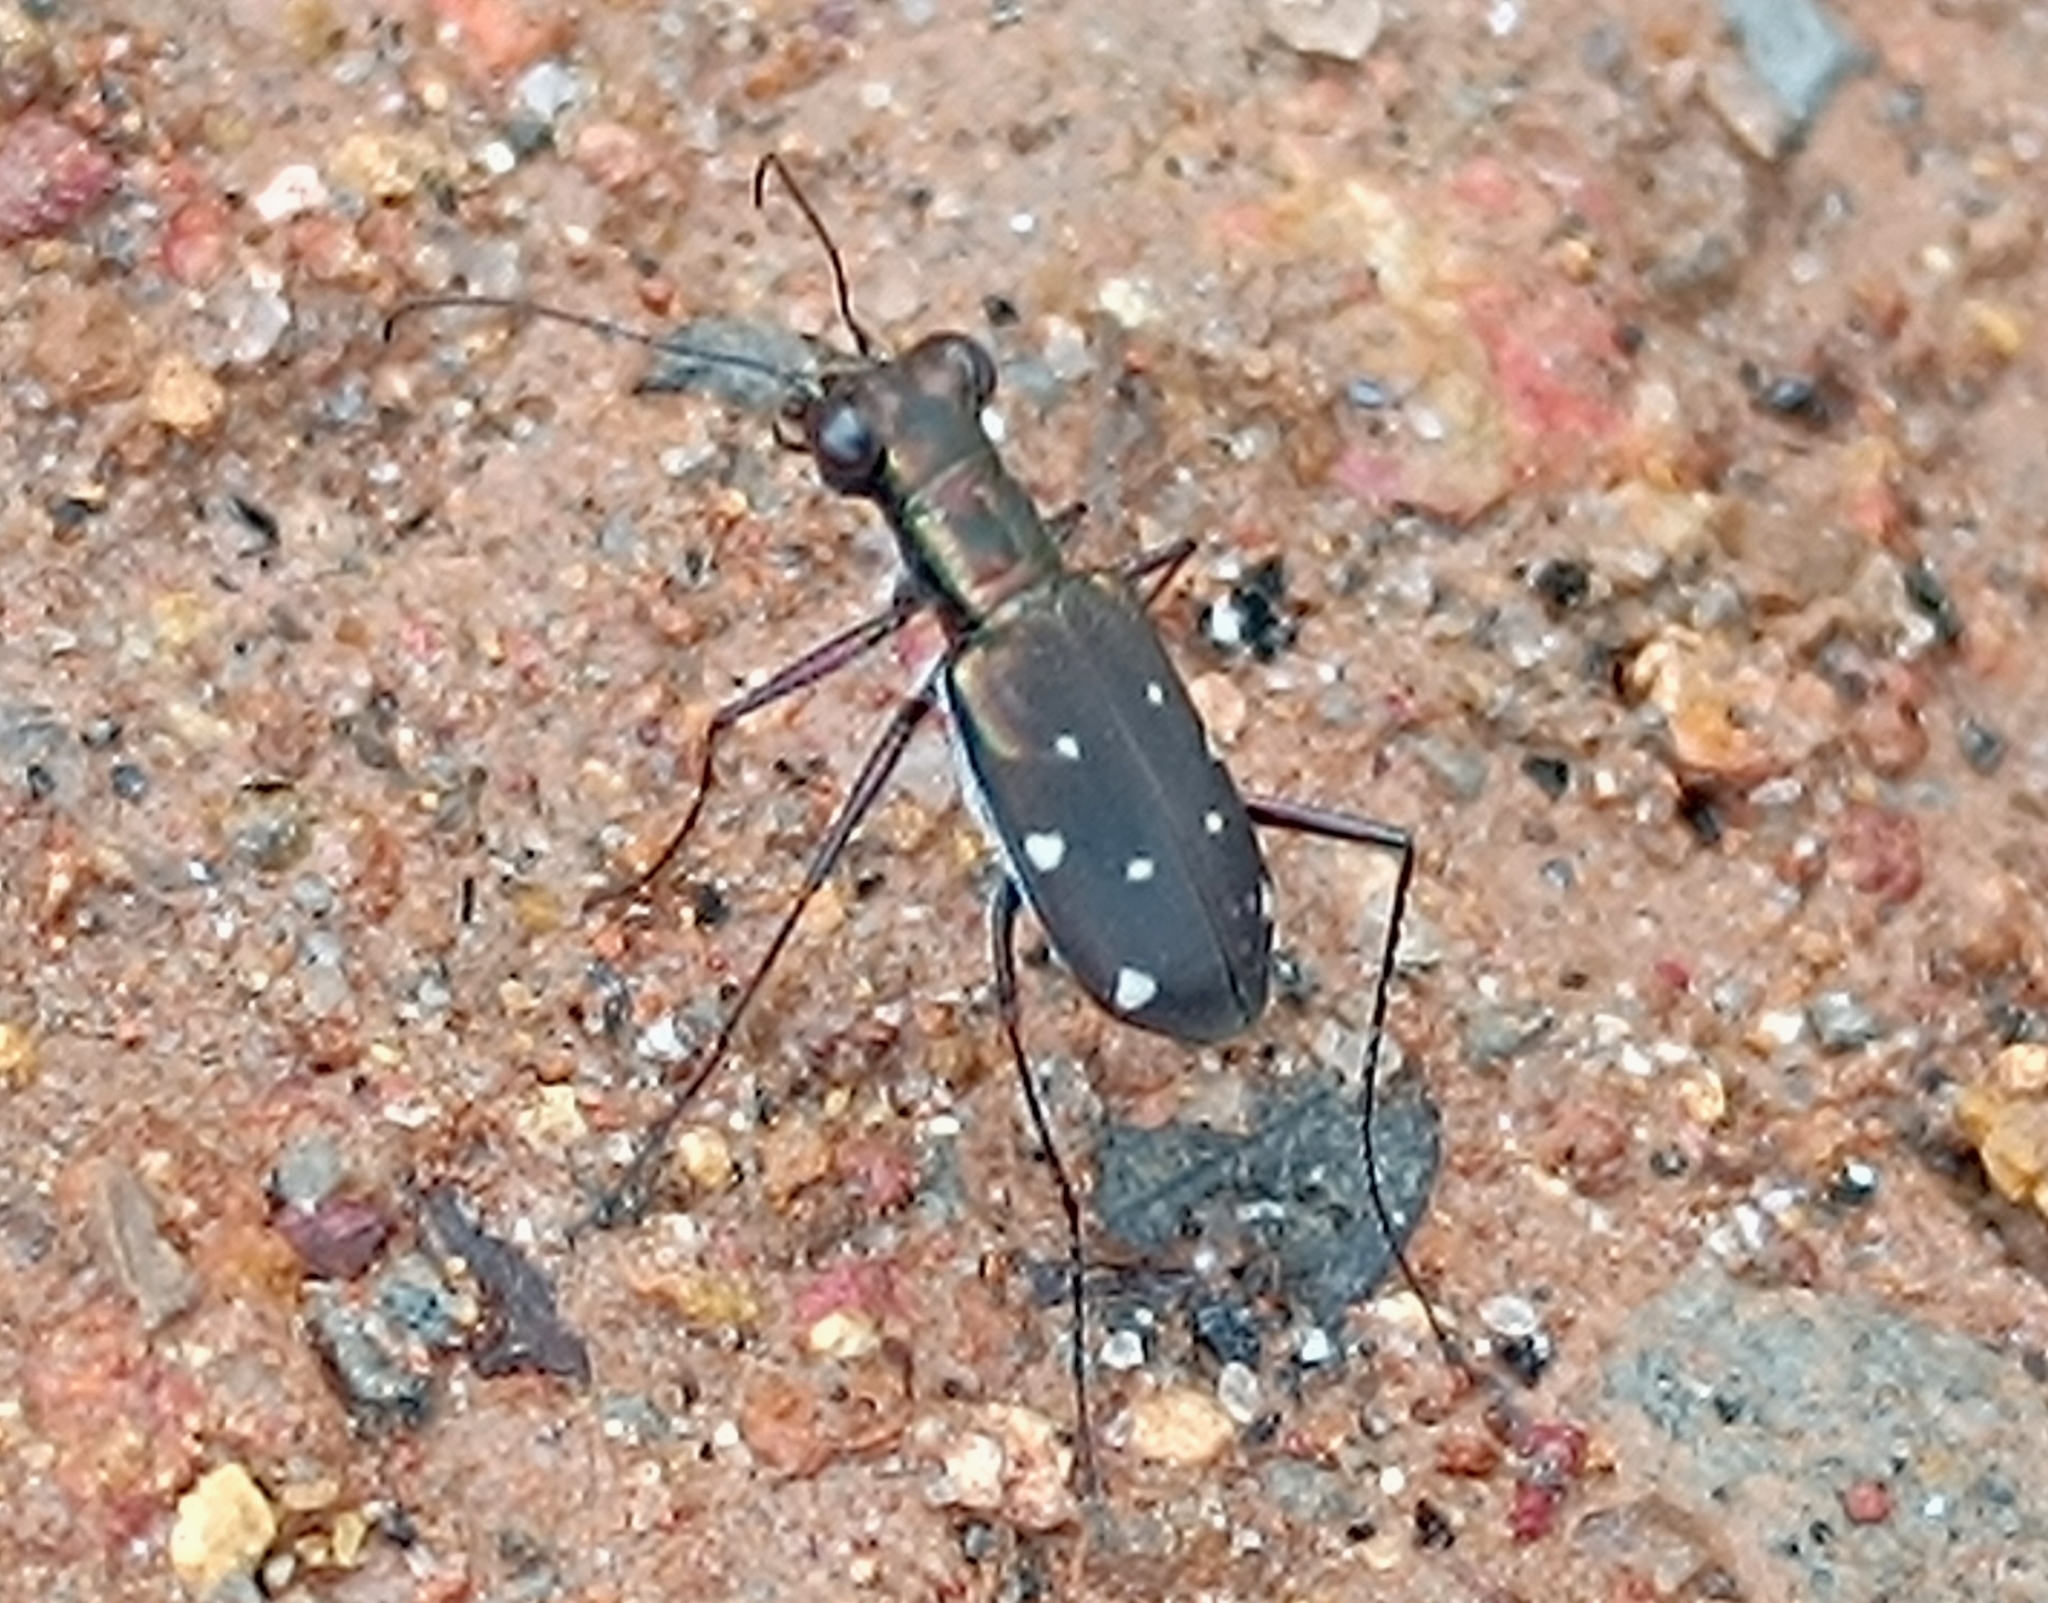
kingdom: Animalia
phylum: Arthropoda
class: Insecta
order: Coleoptera
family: Carabidae
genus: Cylindera
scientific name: Cylindera collicia
